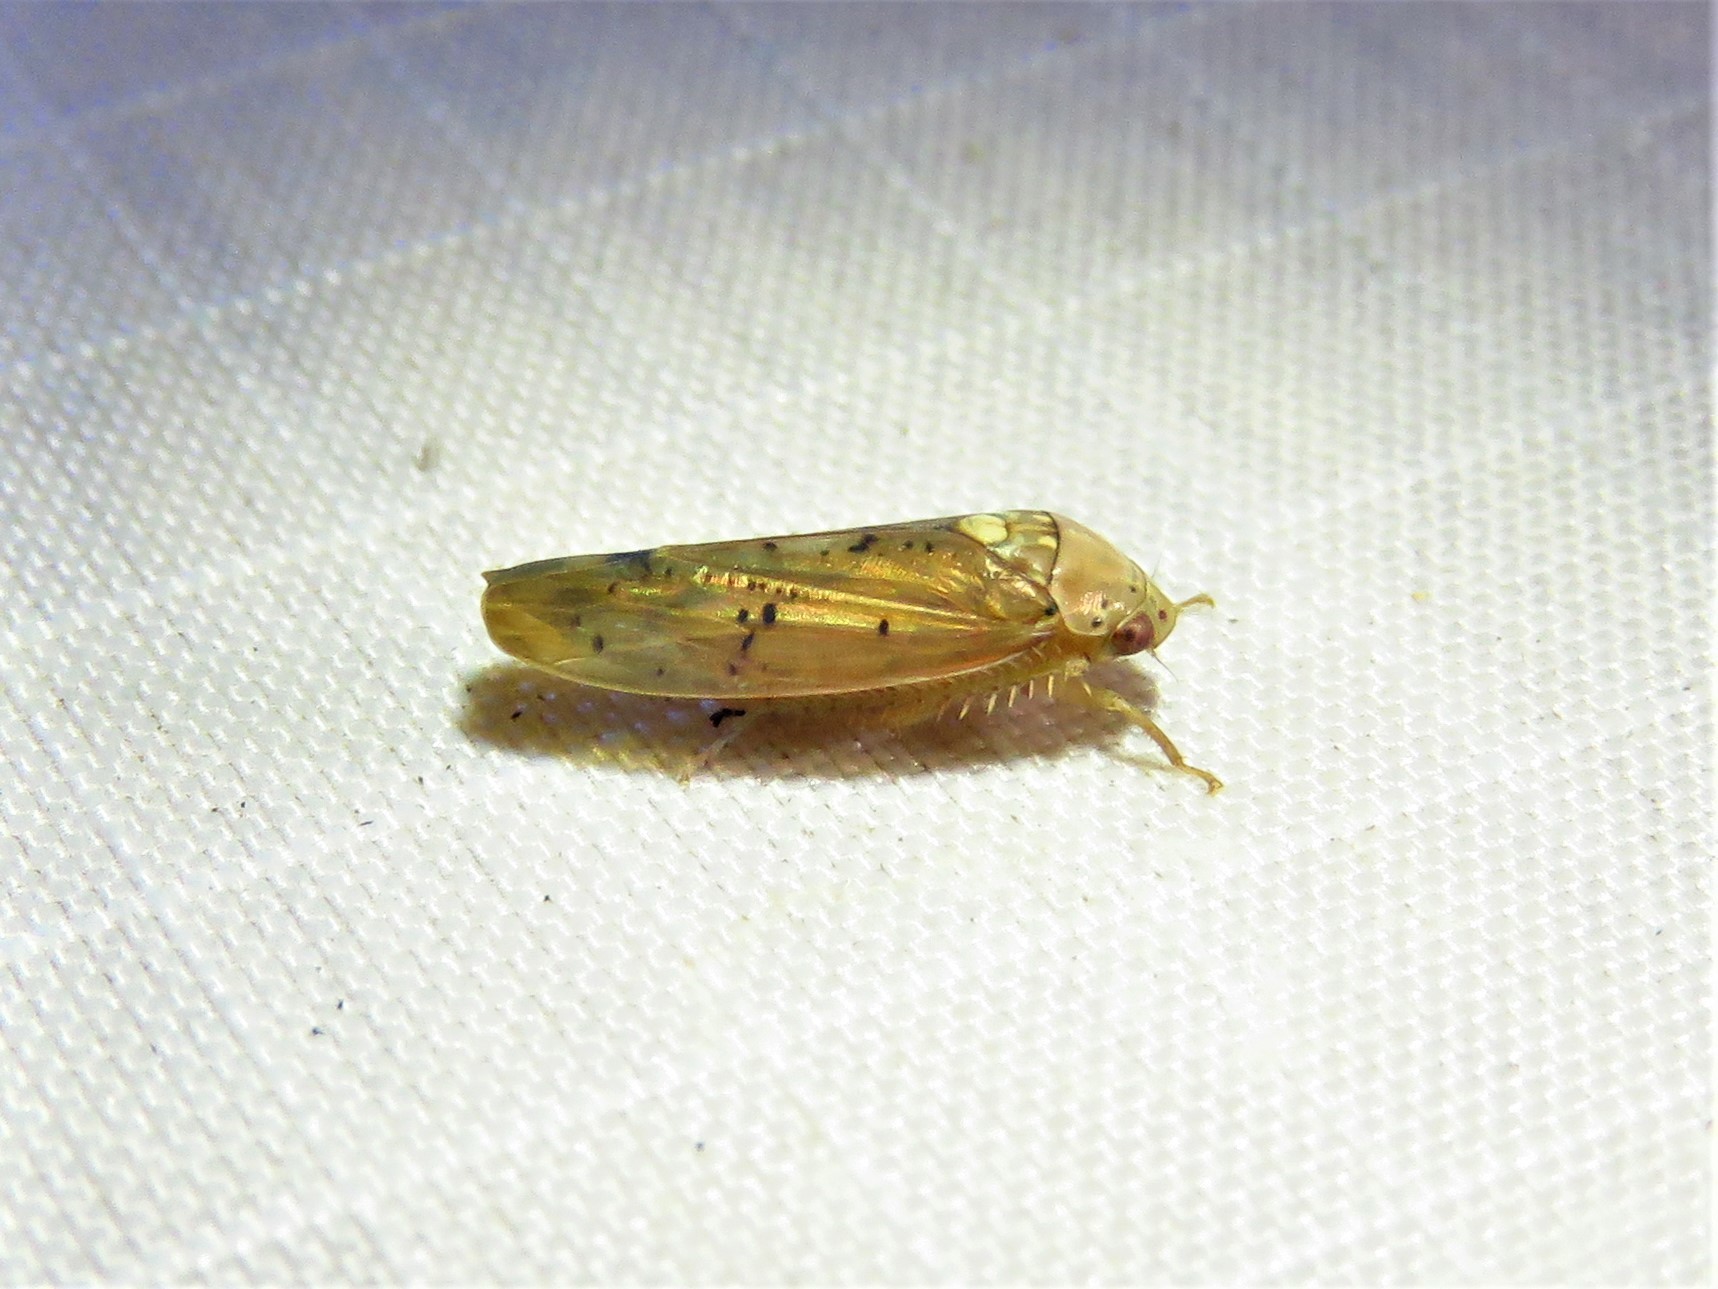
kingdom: Animalia
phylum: Arthropoda
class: Insecta
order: Hemiptera
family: Cicadellidae
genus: Ponana
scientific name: Ponana quadralaba
